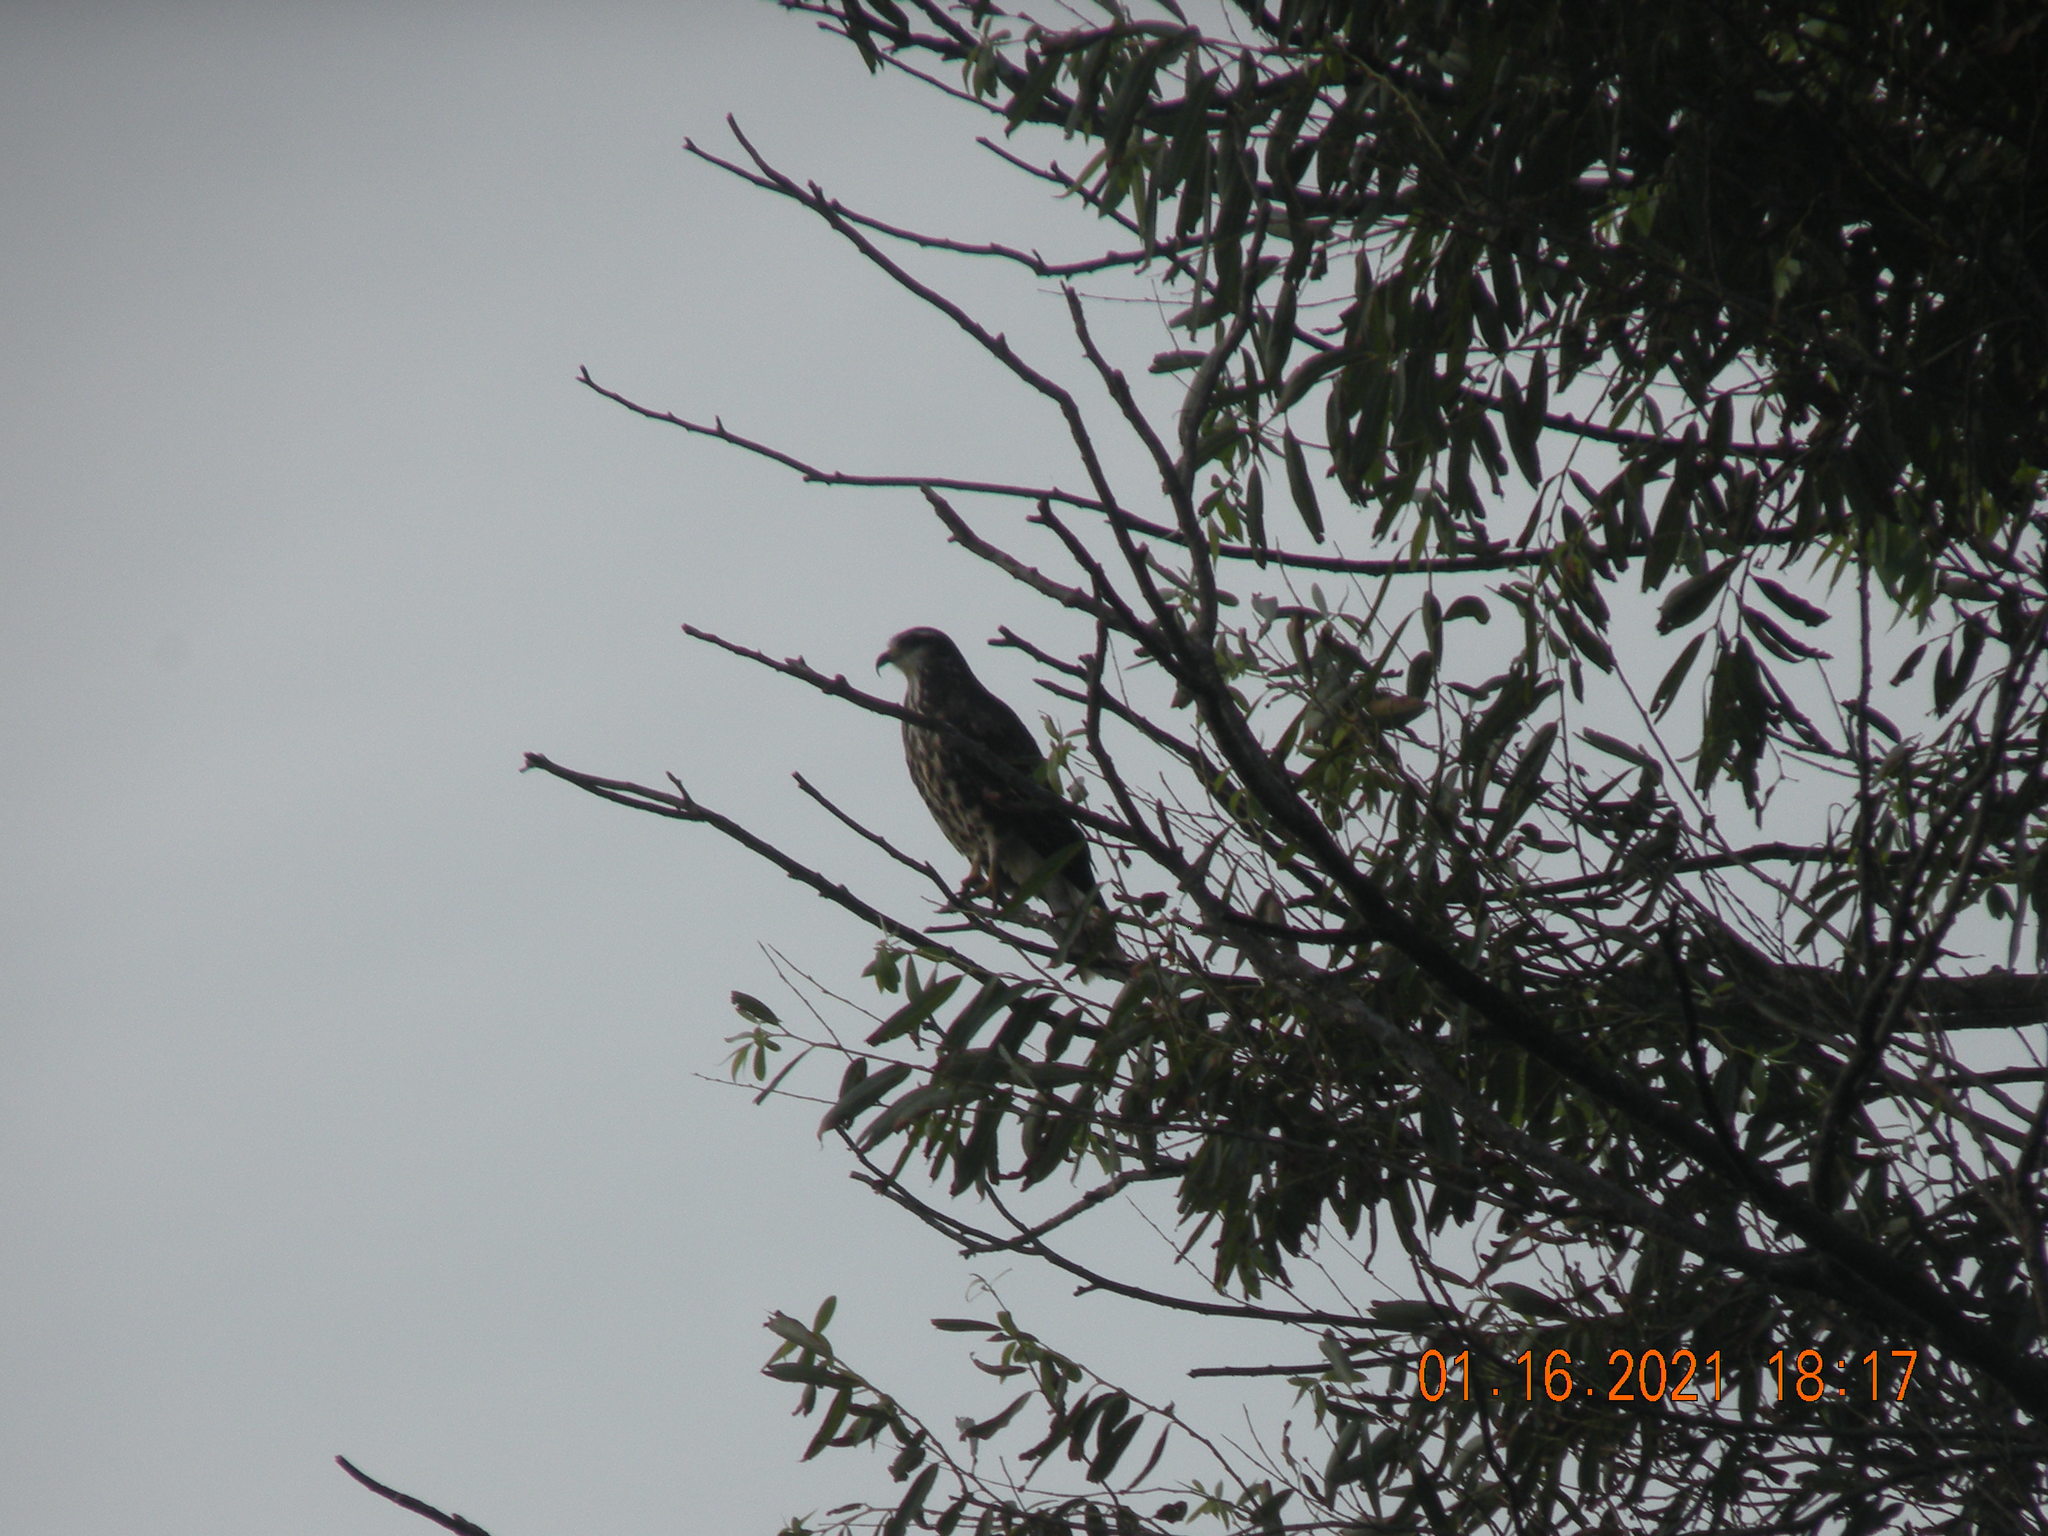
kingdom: Animalia
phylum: Chordata
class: Aves
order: Accipitriformes
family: Accipitridae
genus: Rostrhamus
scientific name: Rostrhamus sociabilis
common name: Snail kite
